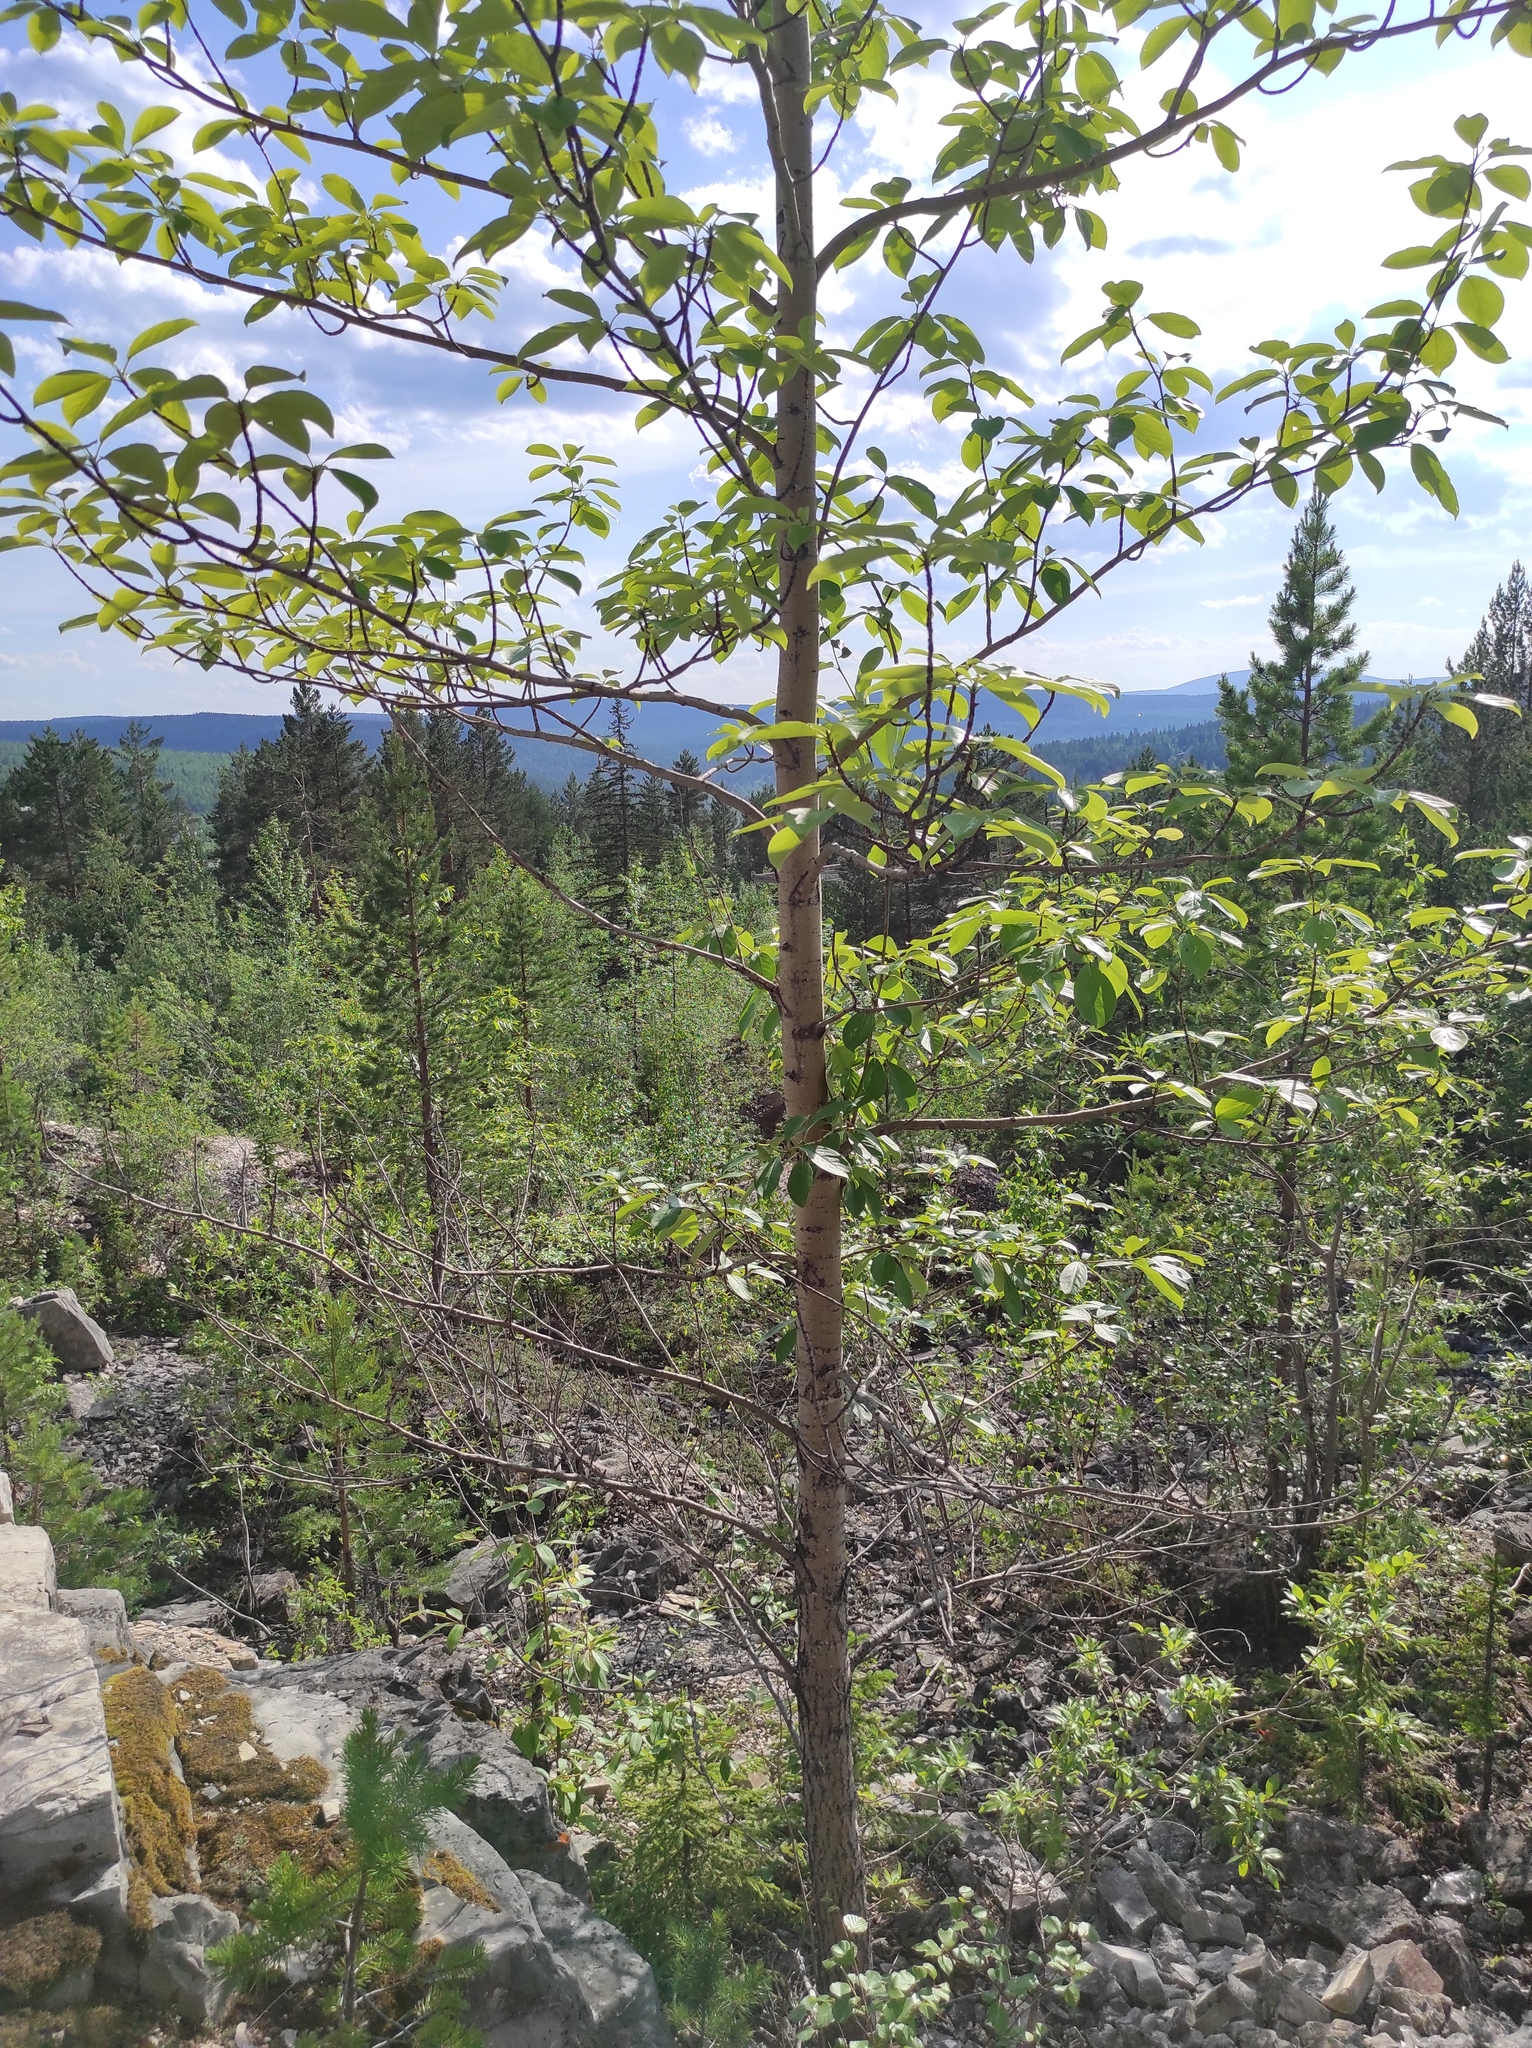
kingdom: Plantae
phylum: Tracheophyta
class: Magnoliopsida
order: Malpighiales
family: Salicaceae
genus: Populus
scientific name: Populus suaveolens
